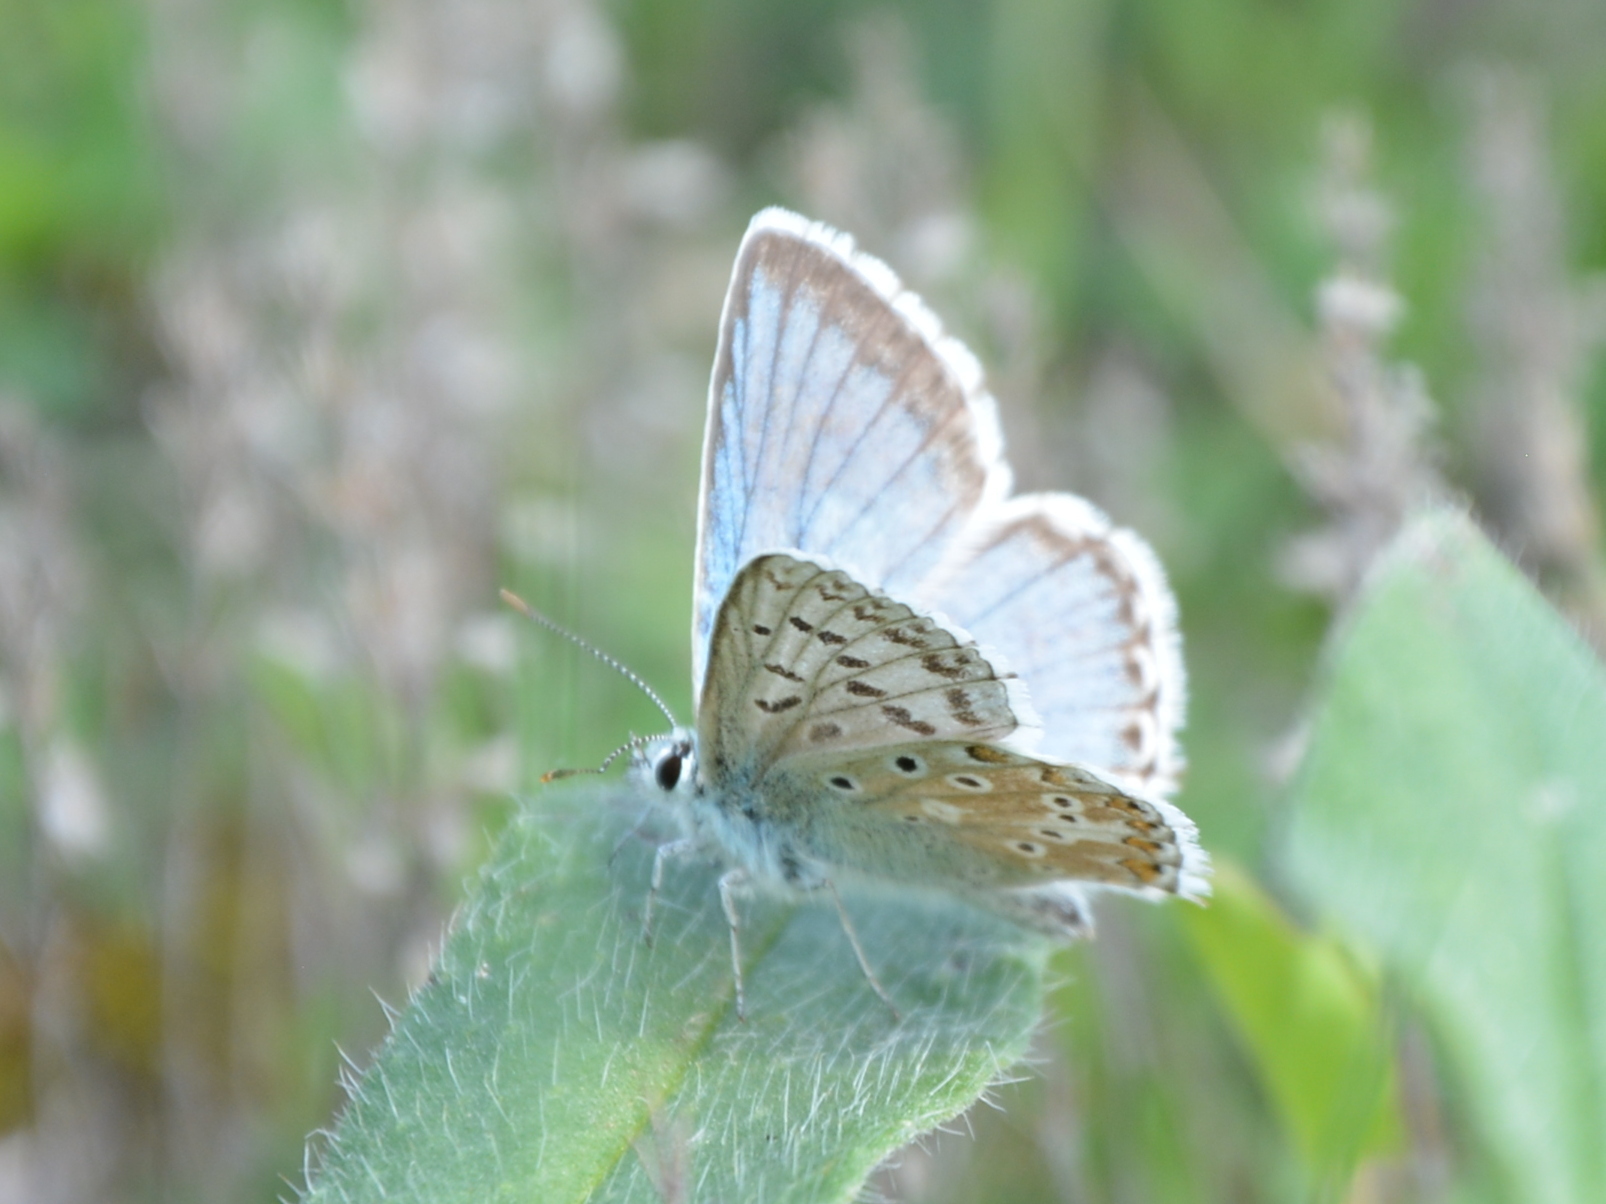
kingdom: Animalia
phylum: Arthropoda
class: Insecta
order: Lepidoptera
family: Lycaenidae
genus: Lysandra
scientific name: Lysandra coridon
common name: Chalkhill blue
